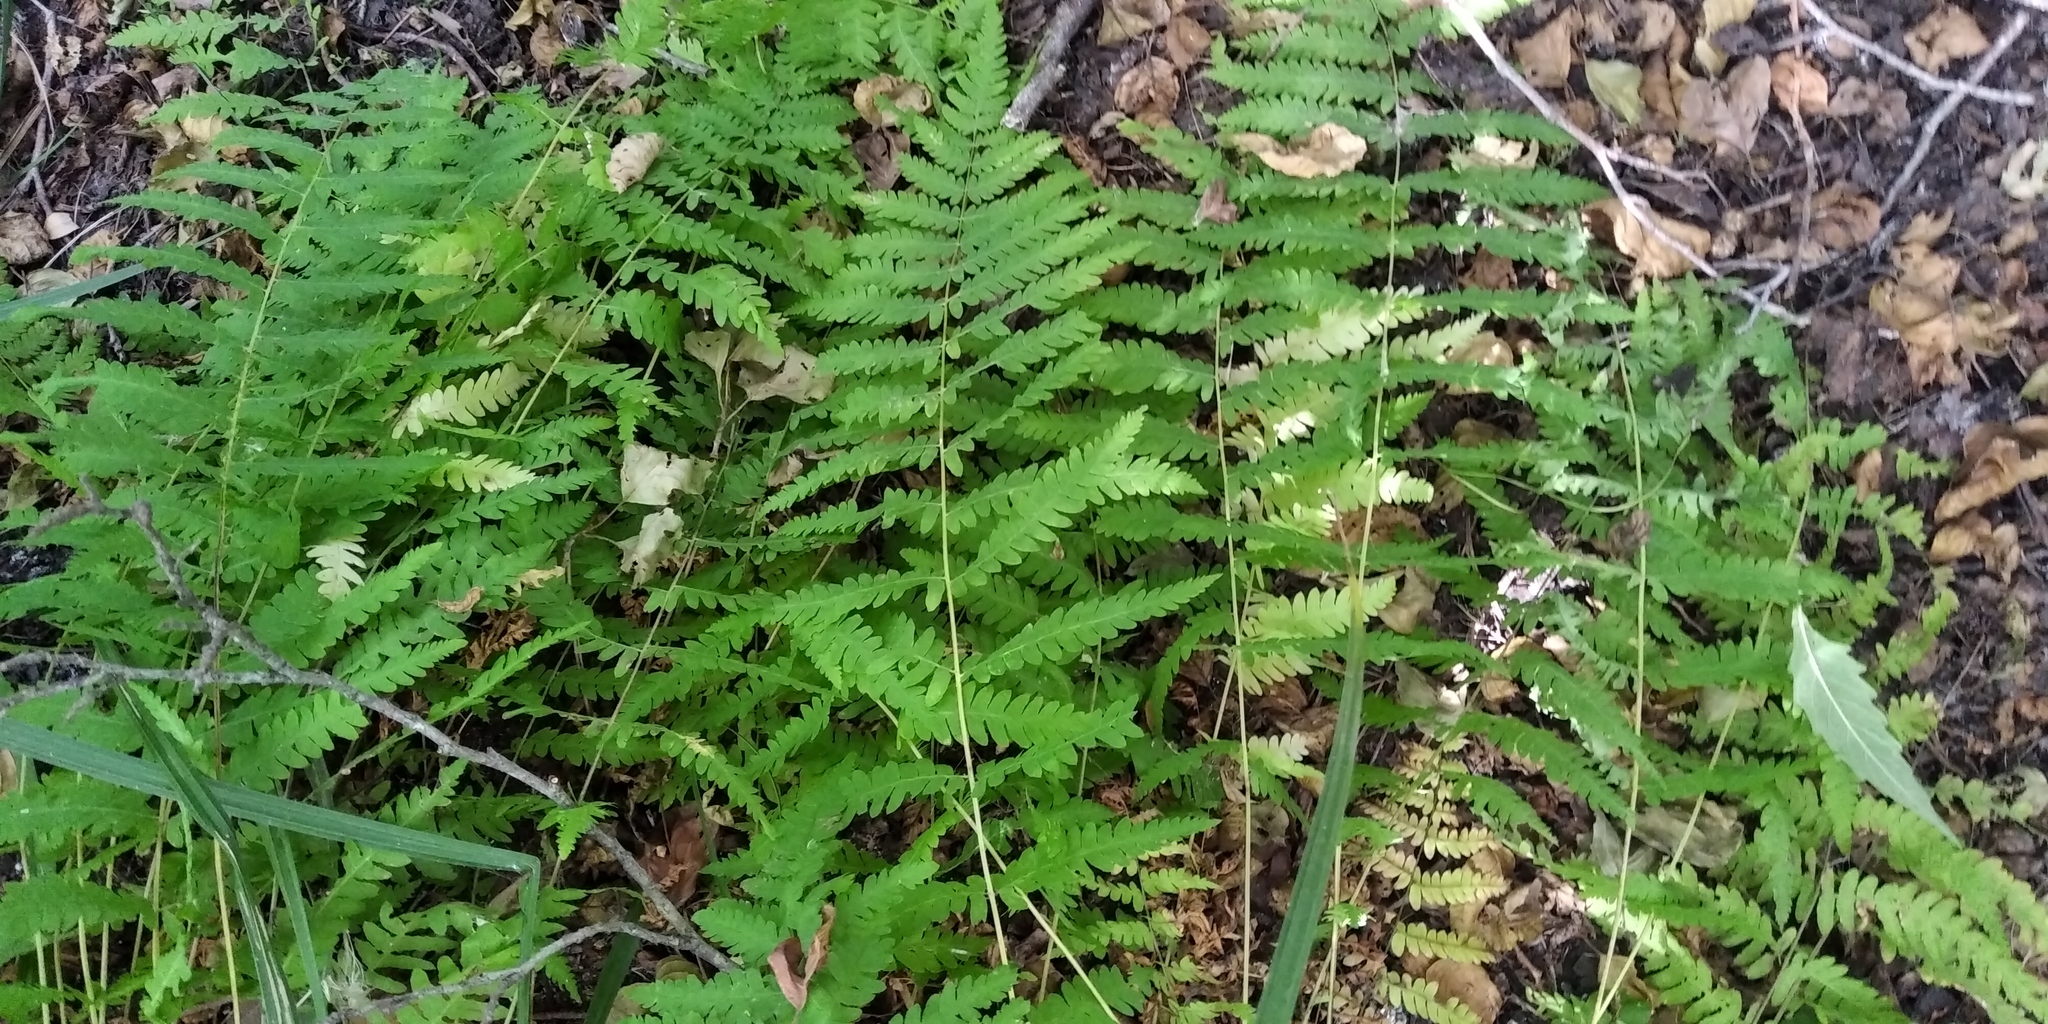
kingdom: Plantae
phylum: Tracheophyta
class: Polypodiopsida
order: Polypodiales
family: Thelypteridaceae
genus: Thelypteris
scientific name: Thelypteris palustris
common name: Marsh fern
